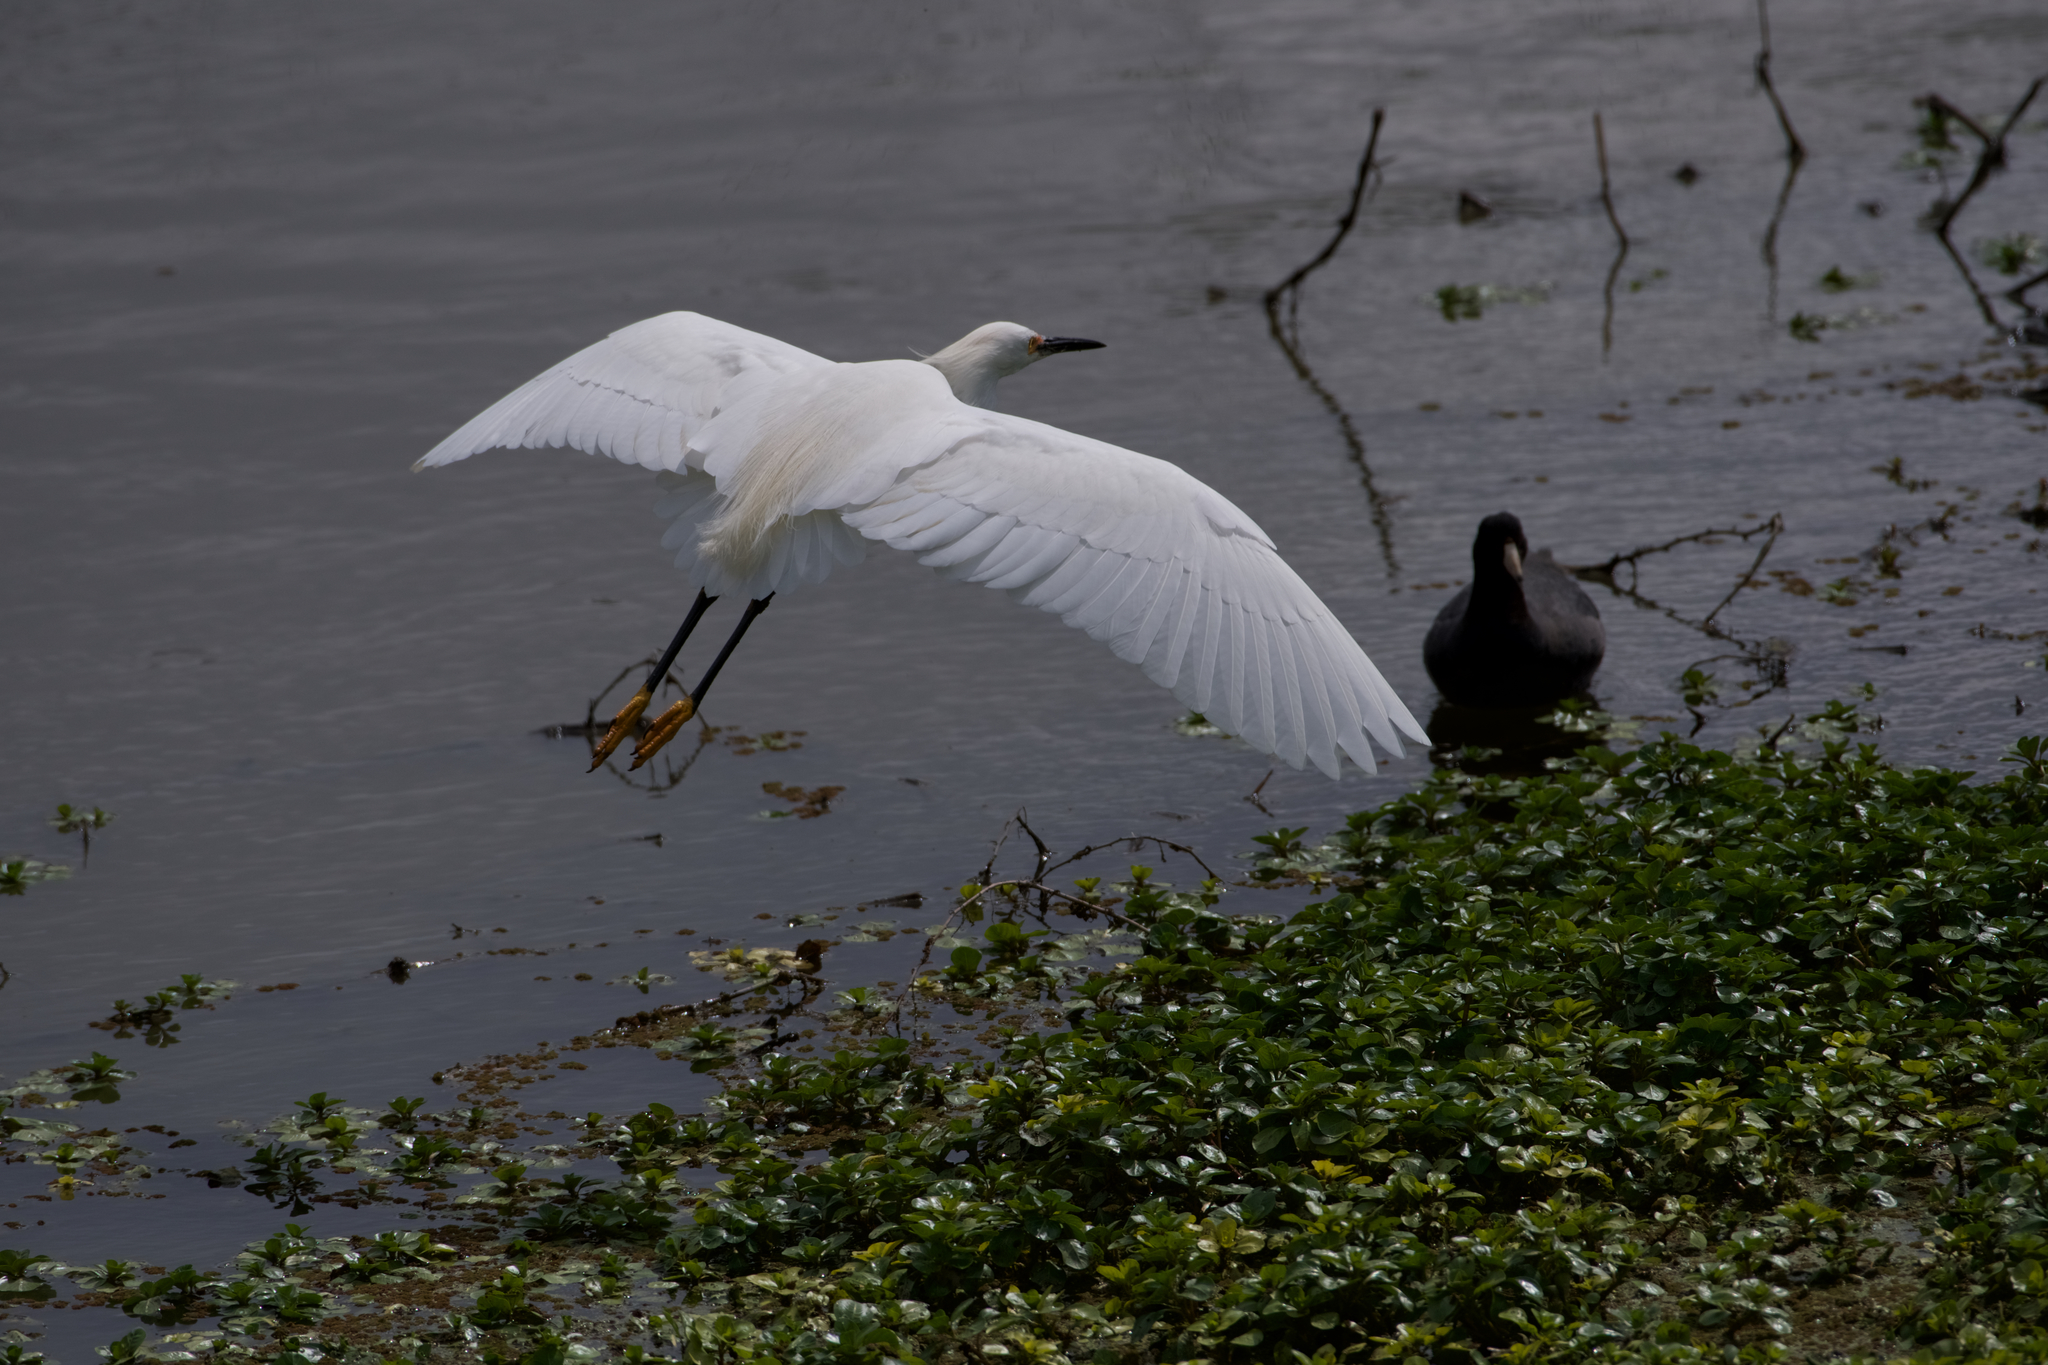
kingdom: Animalia
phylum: Chordata
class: Aves
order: Pelecaniformes
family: Ardeidae
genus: Egretta
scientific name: Egretta thula
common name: Snowy egret
